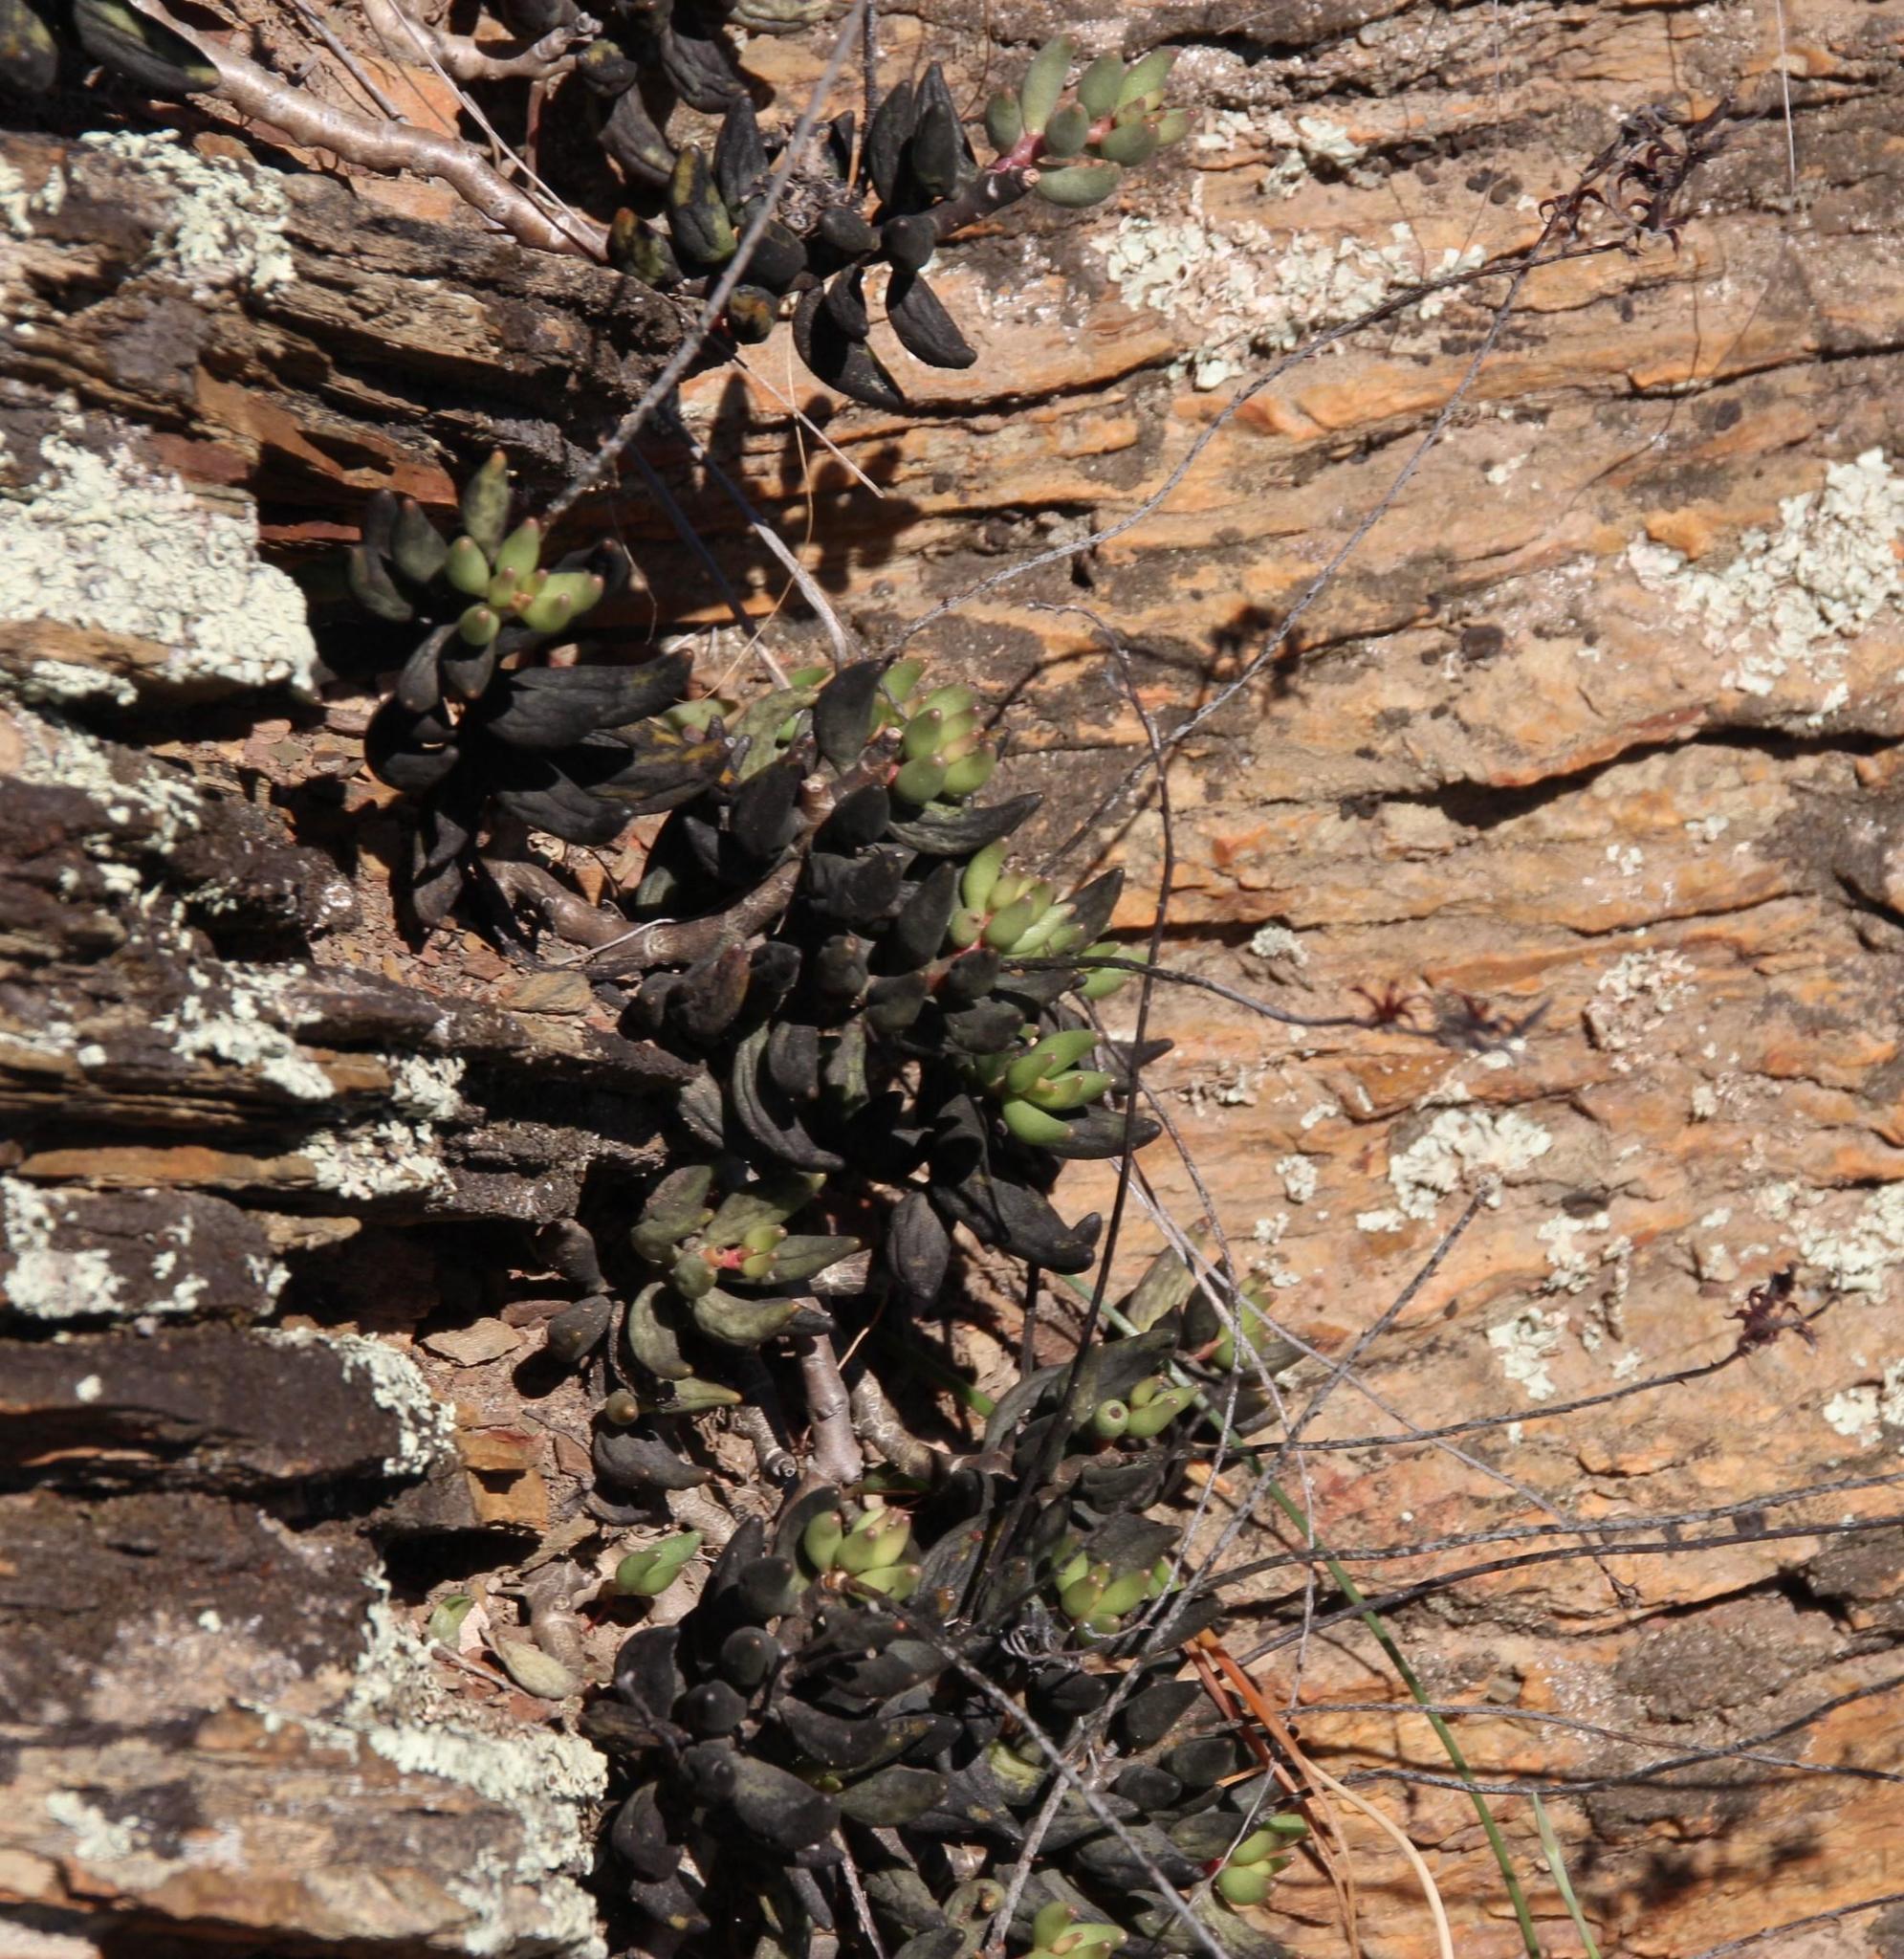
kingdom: Plantae
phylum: Tracheophyta
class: Magnoliopsida
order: Saxifragales
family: Crassulaceae
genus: Adromischus
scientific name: Adromischus filicaulis
